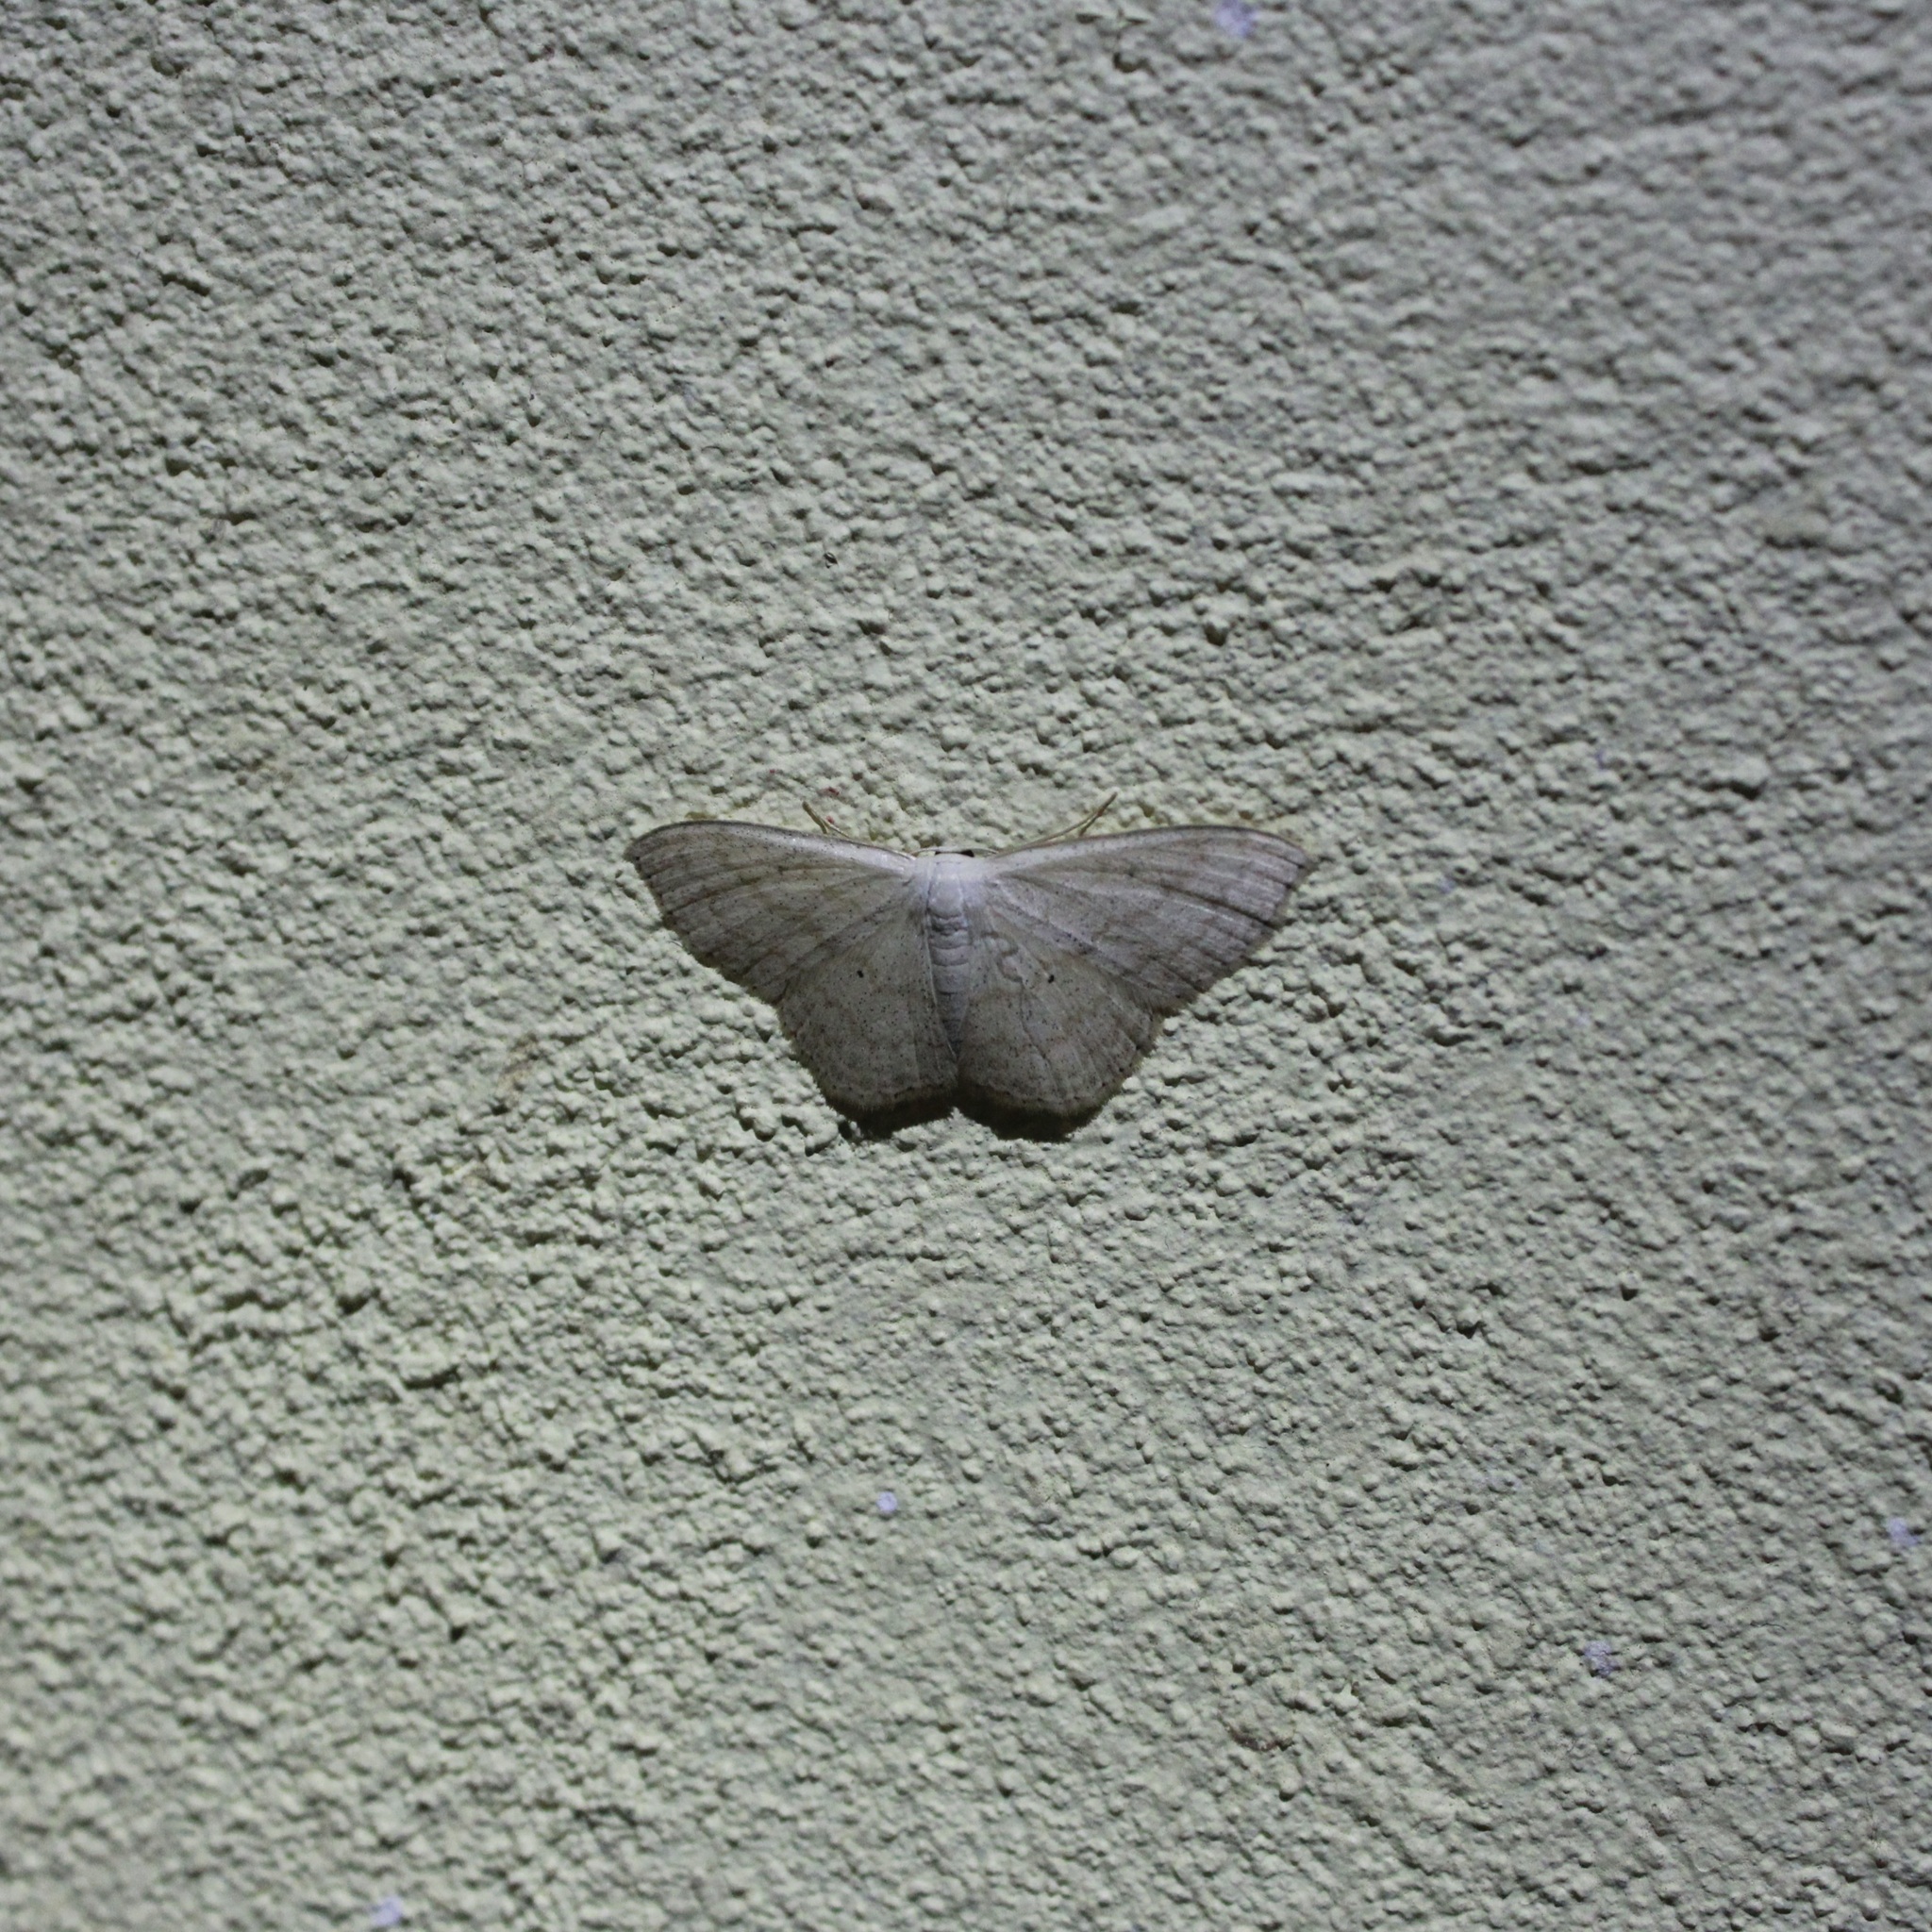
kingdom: Animalia
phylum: Arthropoda
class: Insecta
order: Lepidoptera
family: Geometridae
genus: Scopula
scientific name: Scopula napariata
